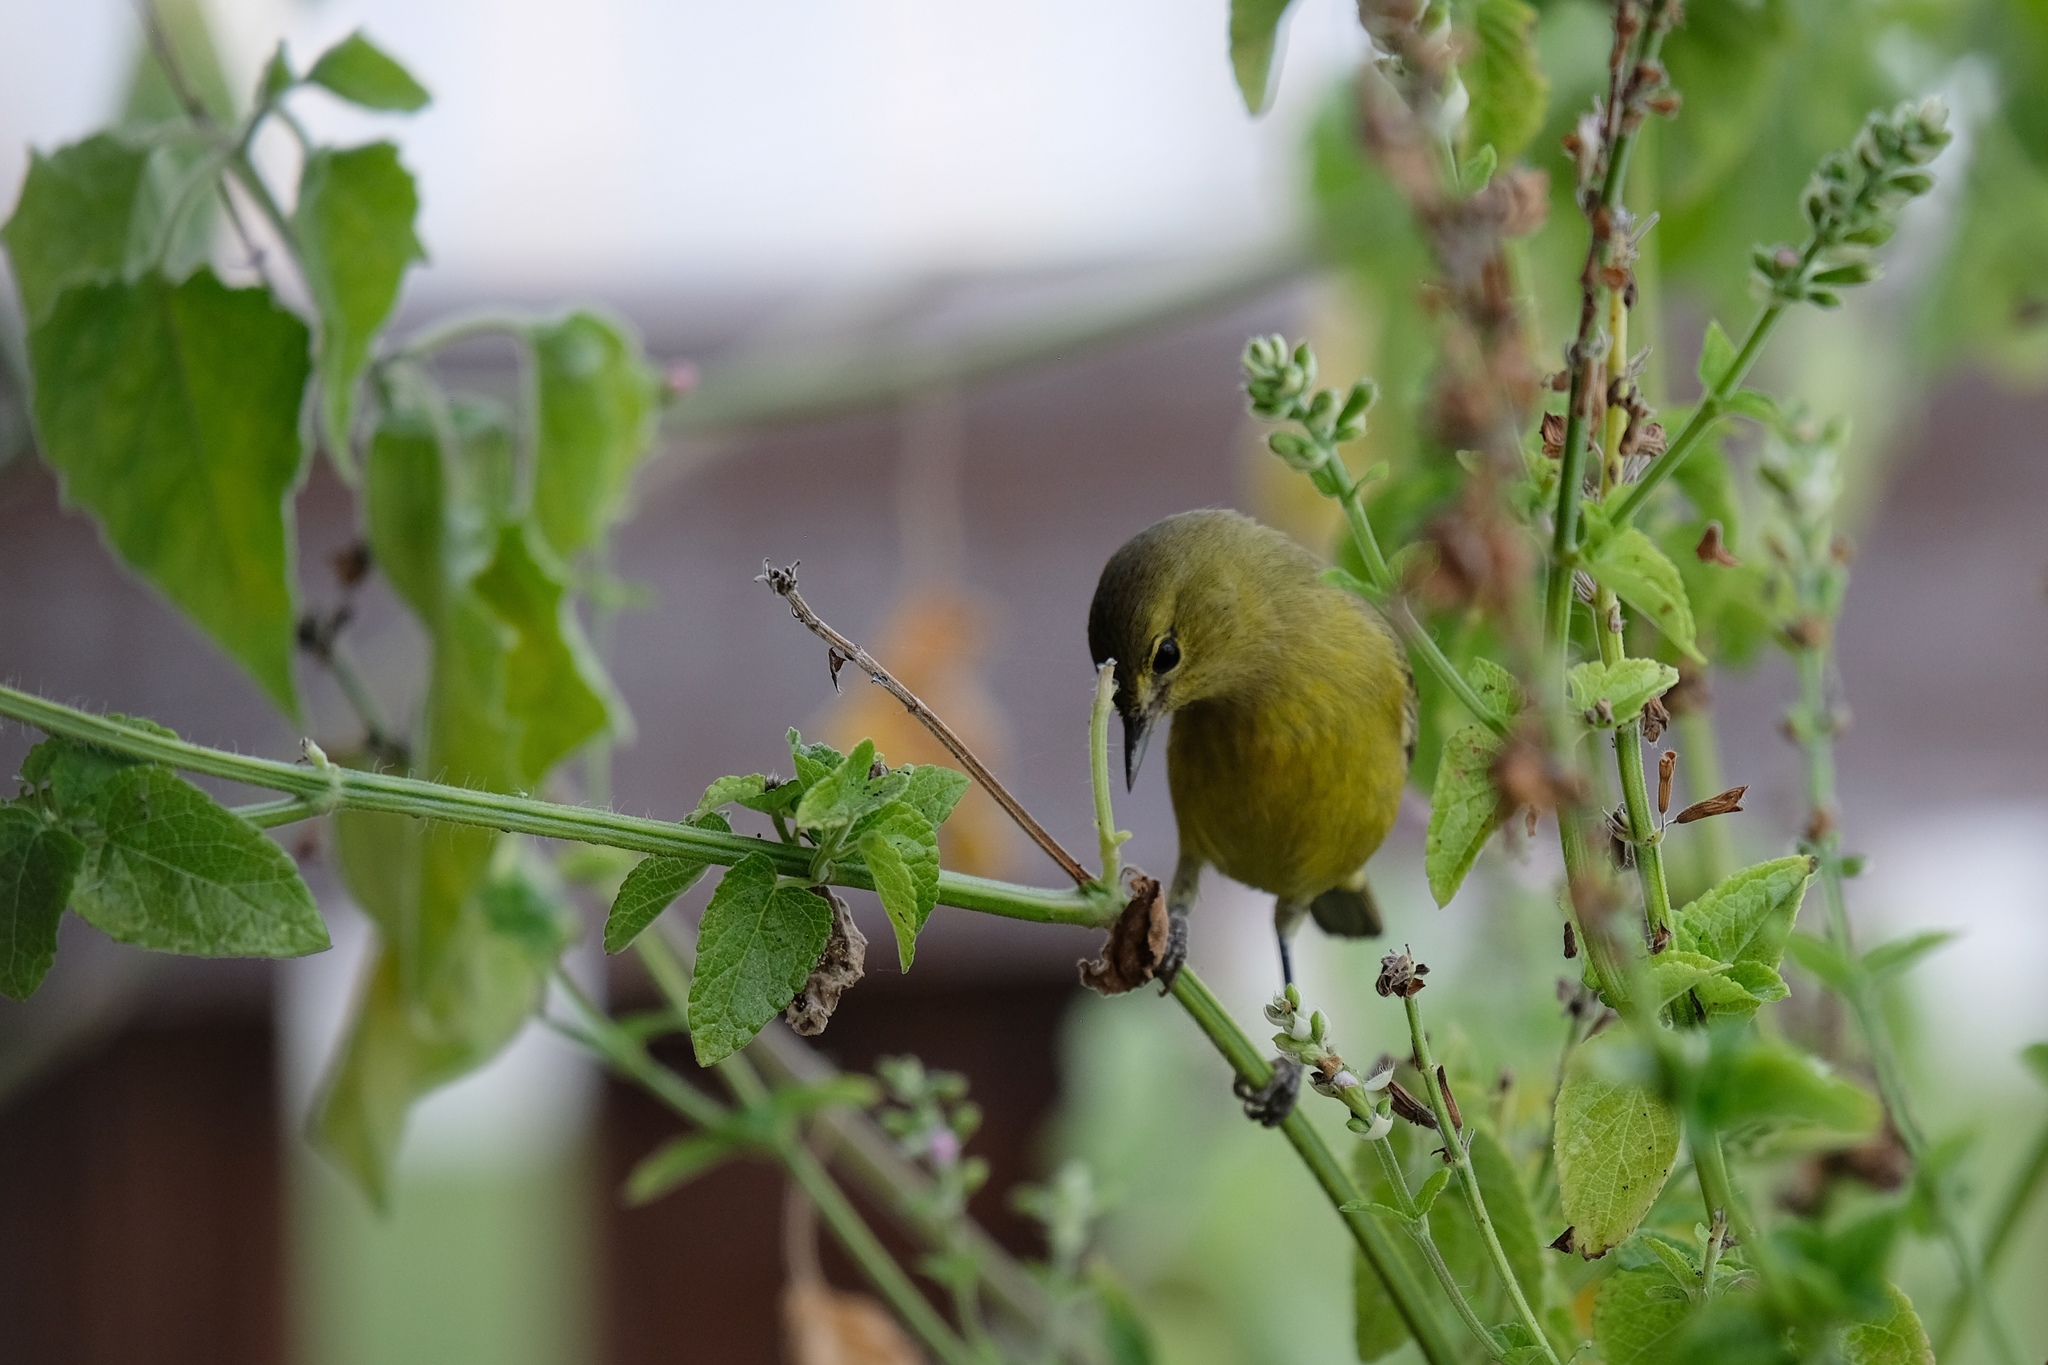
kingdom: Animalia
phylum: Chordata
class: Aves
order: Passeriformes
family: Parulidae
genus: Leiothlypis
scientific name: Leiothlypis celata
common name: Orange-crowned warbler
